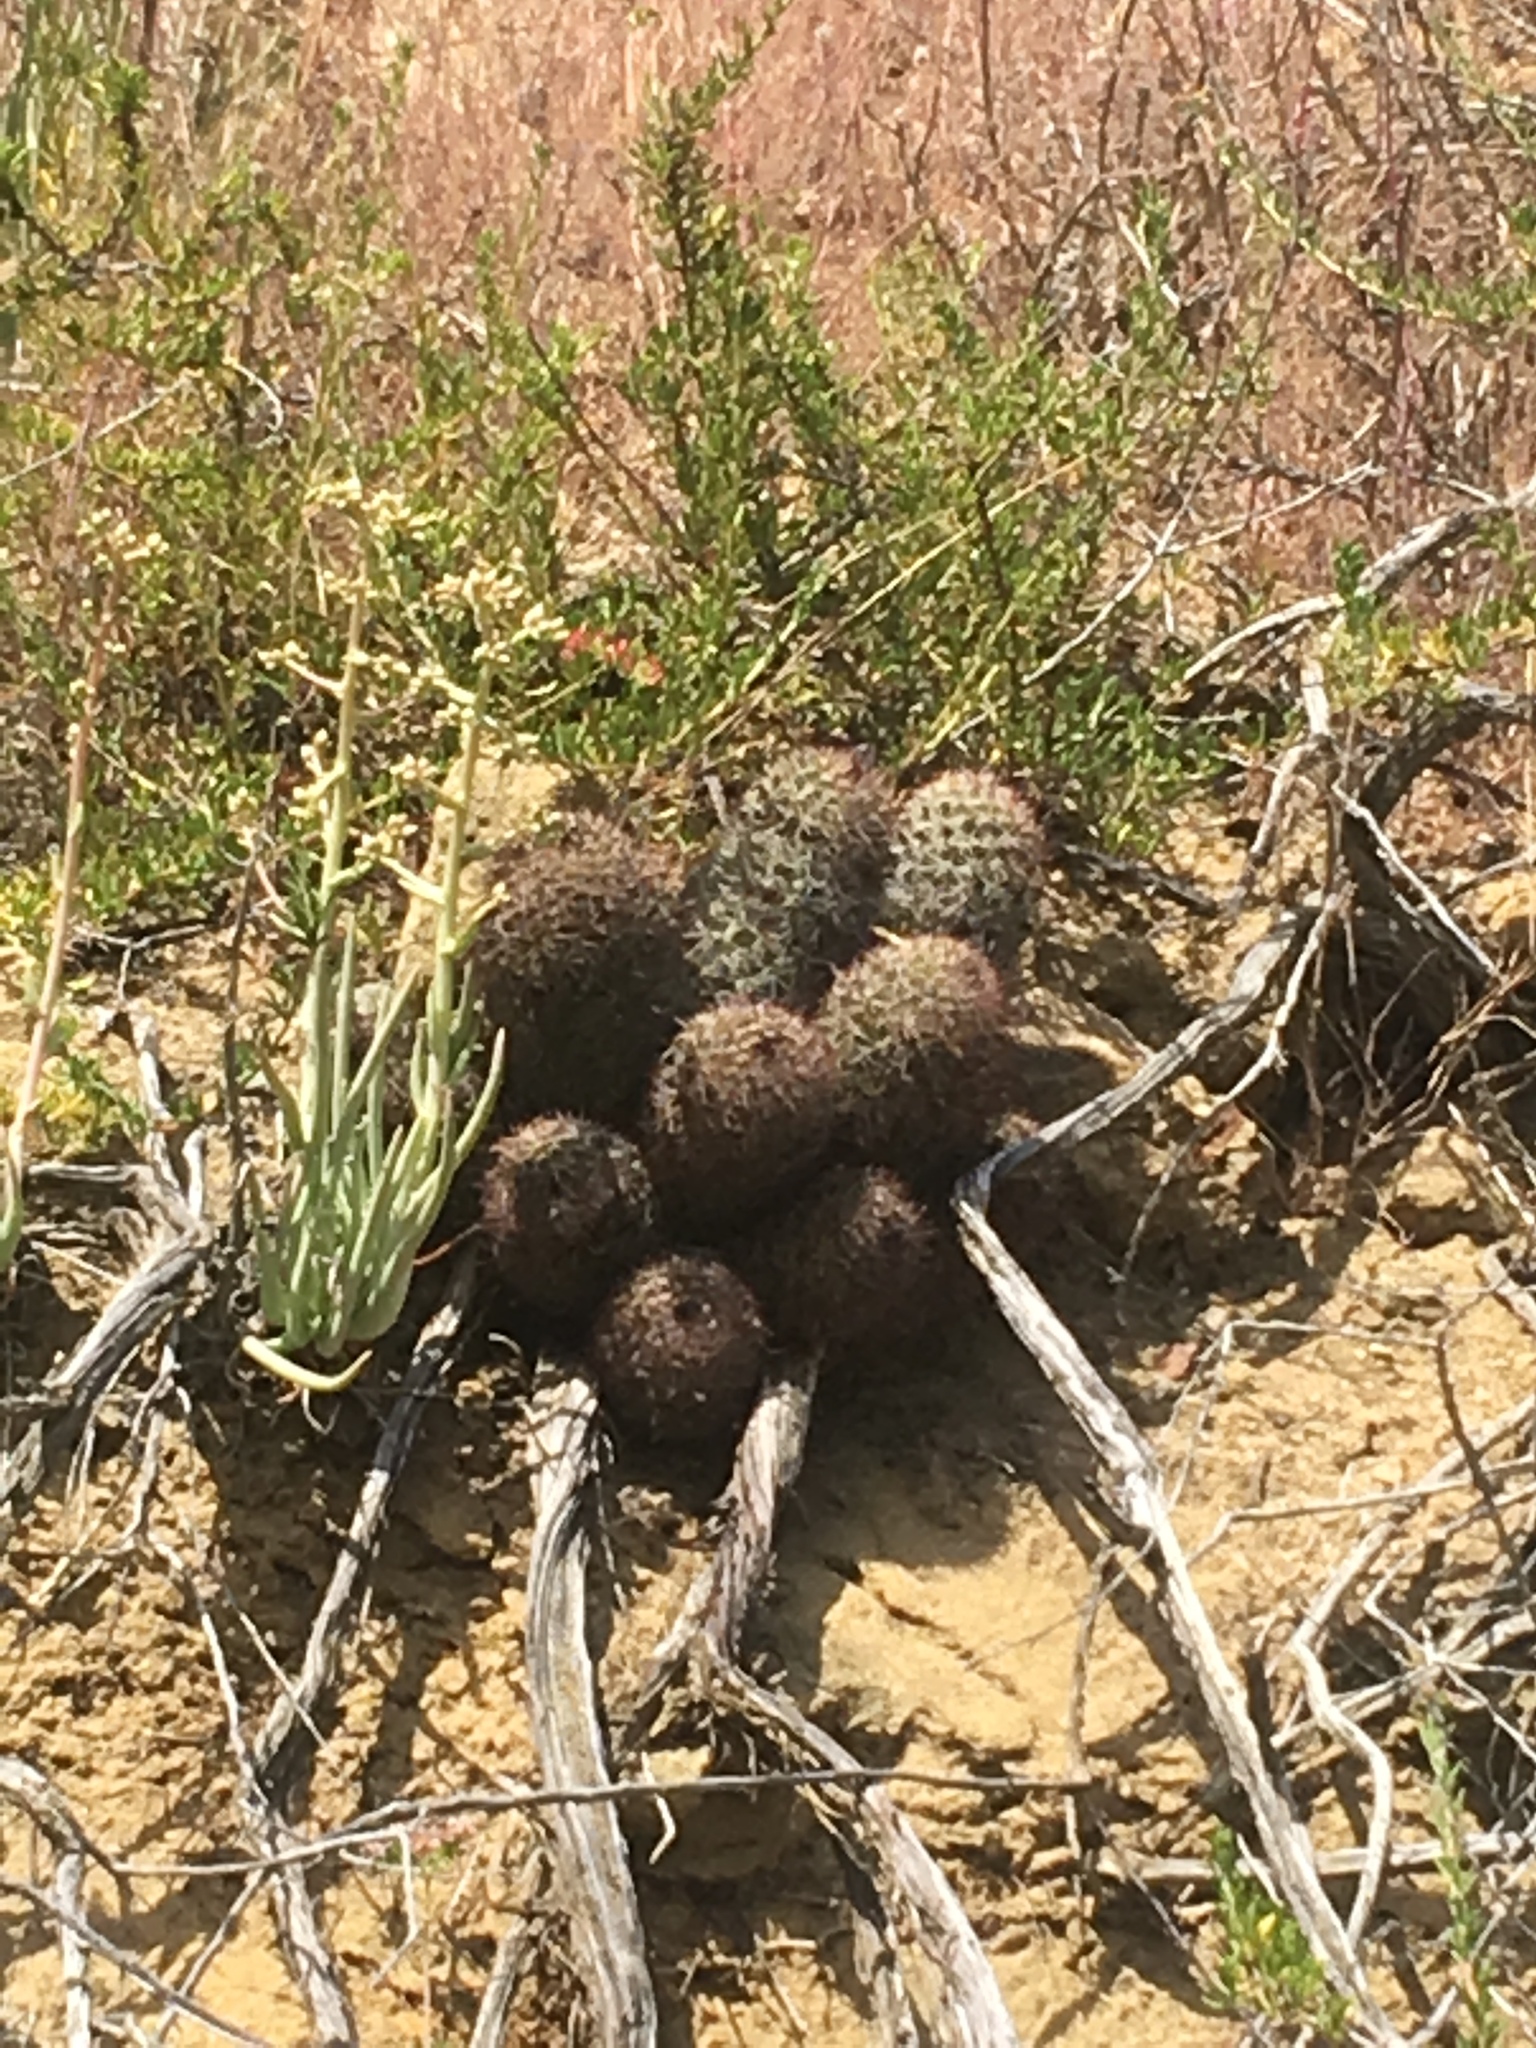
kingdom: Plantae
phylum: Tracheophyta
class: Magnoliopsida
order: Caryophyllales
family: Cactaceae
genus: Cochemiea
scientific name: Cochemiea dioica
